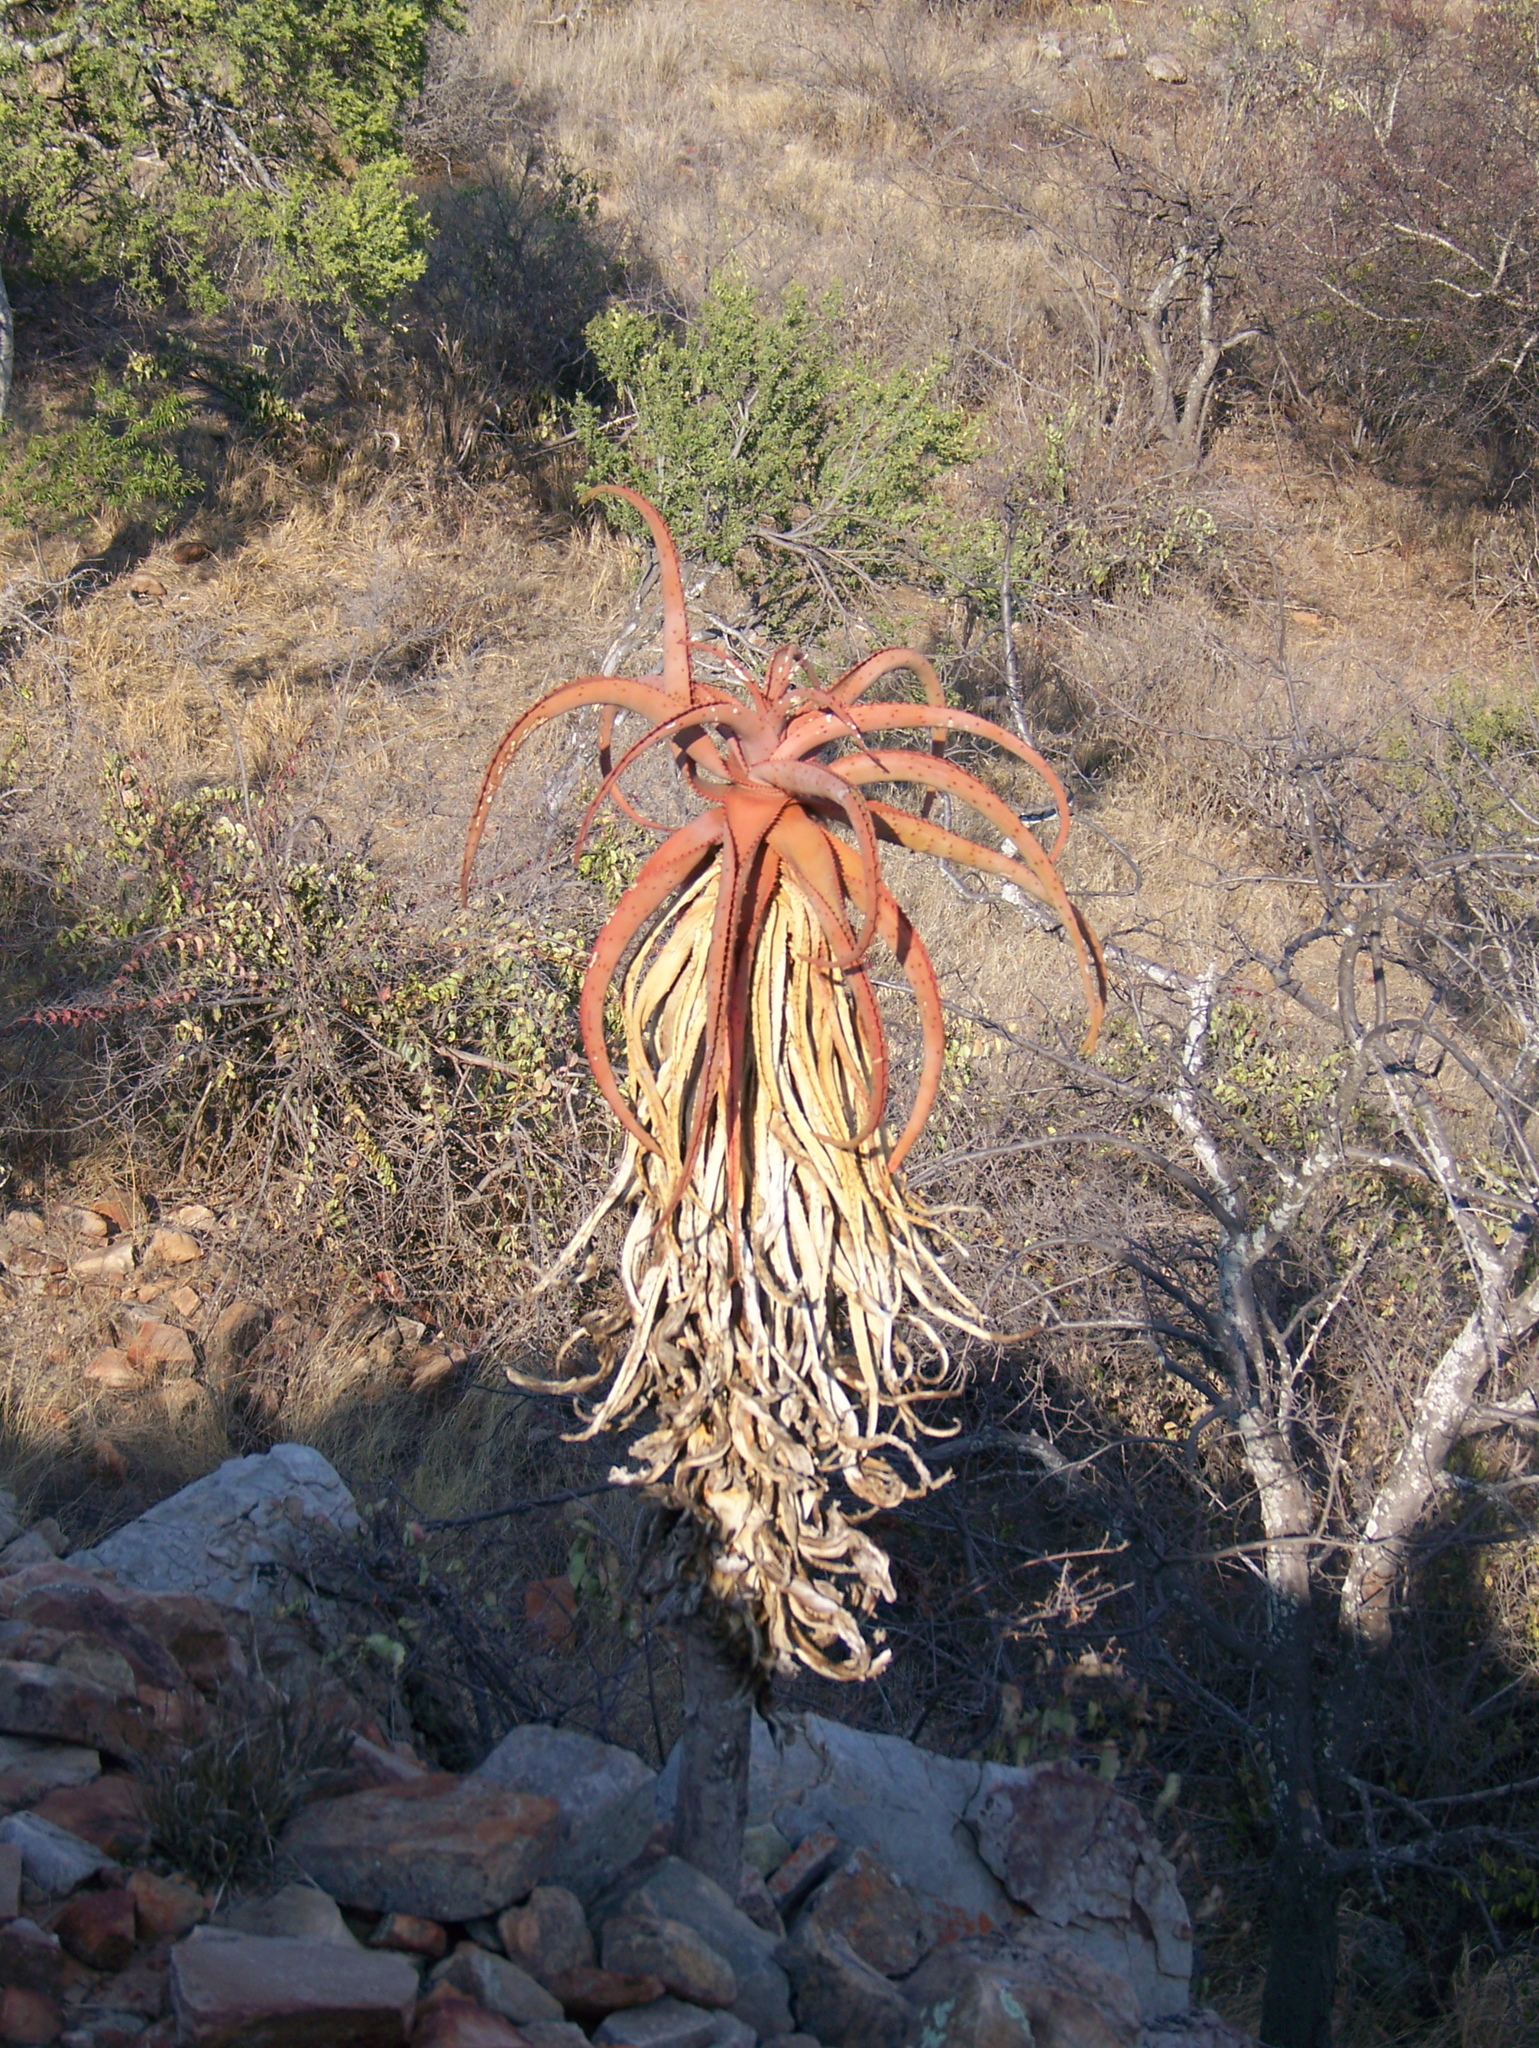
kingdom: Plantae
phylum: Tracheophyta
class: Liliopsida
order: Asparagales
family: Asphodelaceae
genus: Aloe
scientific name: Aloe excelsa
